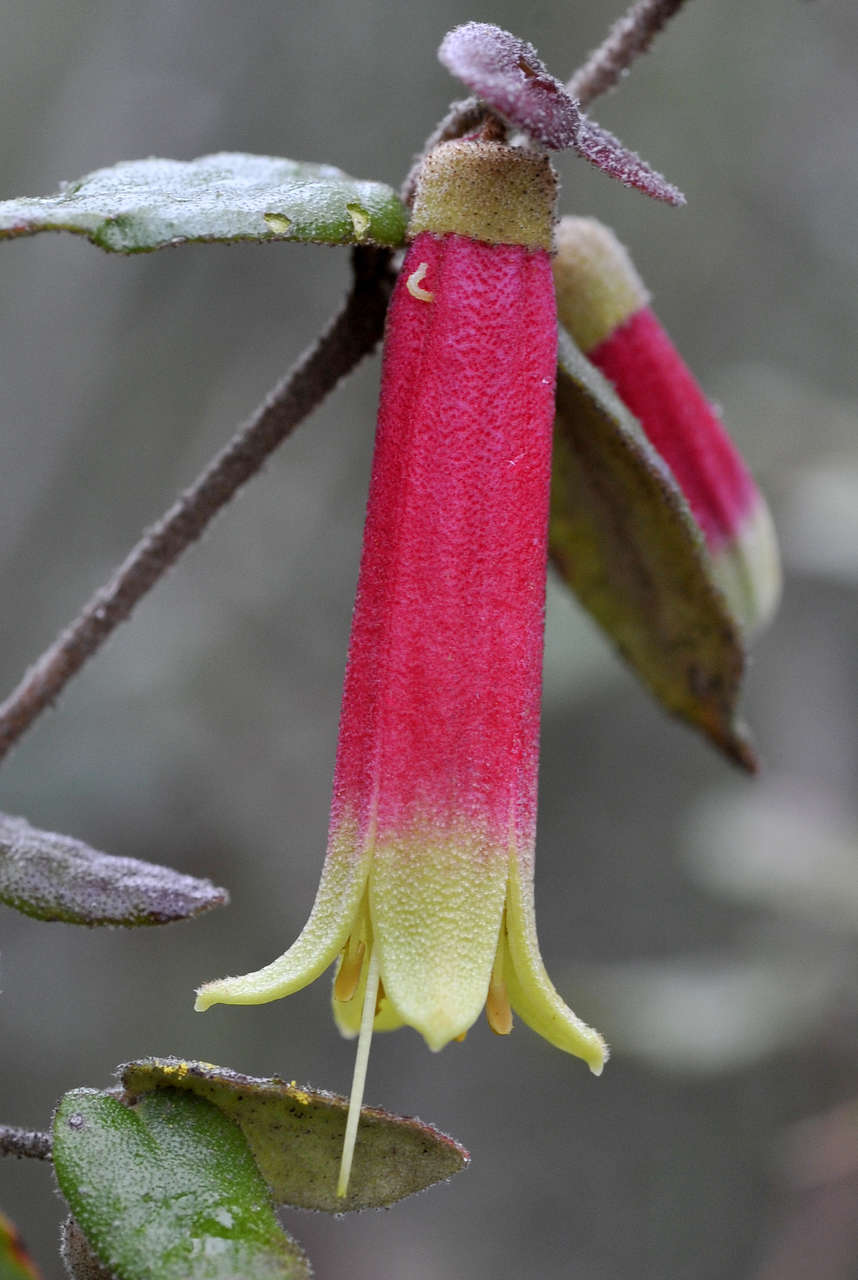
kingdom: Plantae
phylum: Tracheophyta
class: Magnoliopsida
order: Sapindales
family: Rutaceae
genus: Correa
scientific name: Correa reflexa
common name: Common correa
